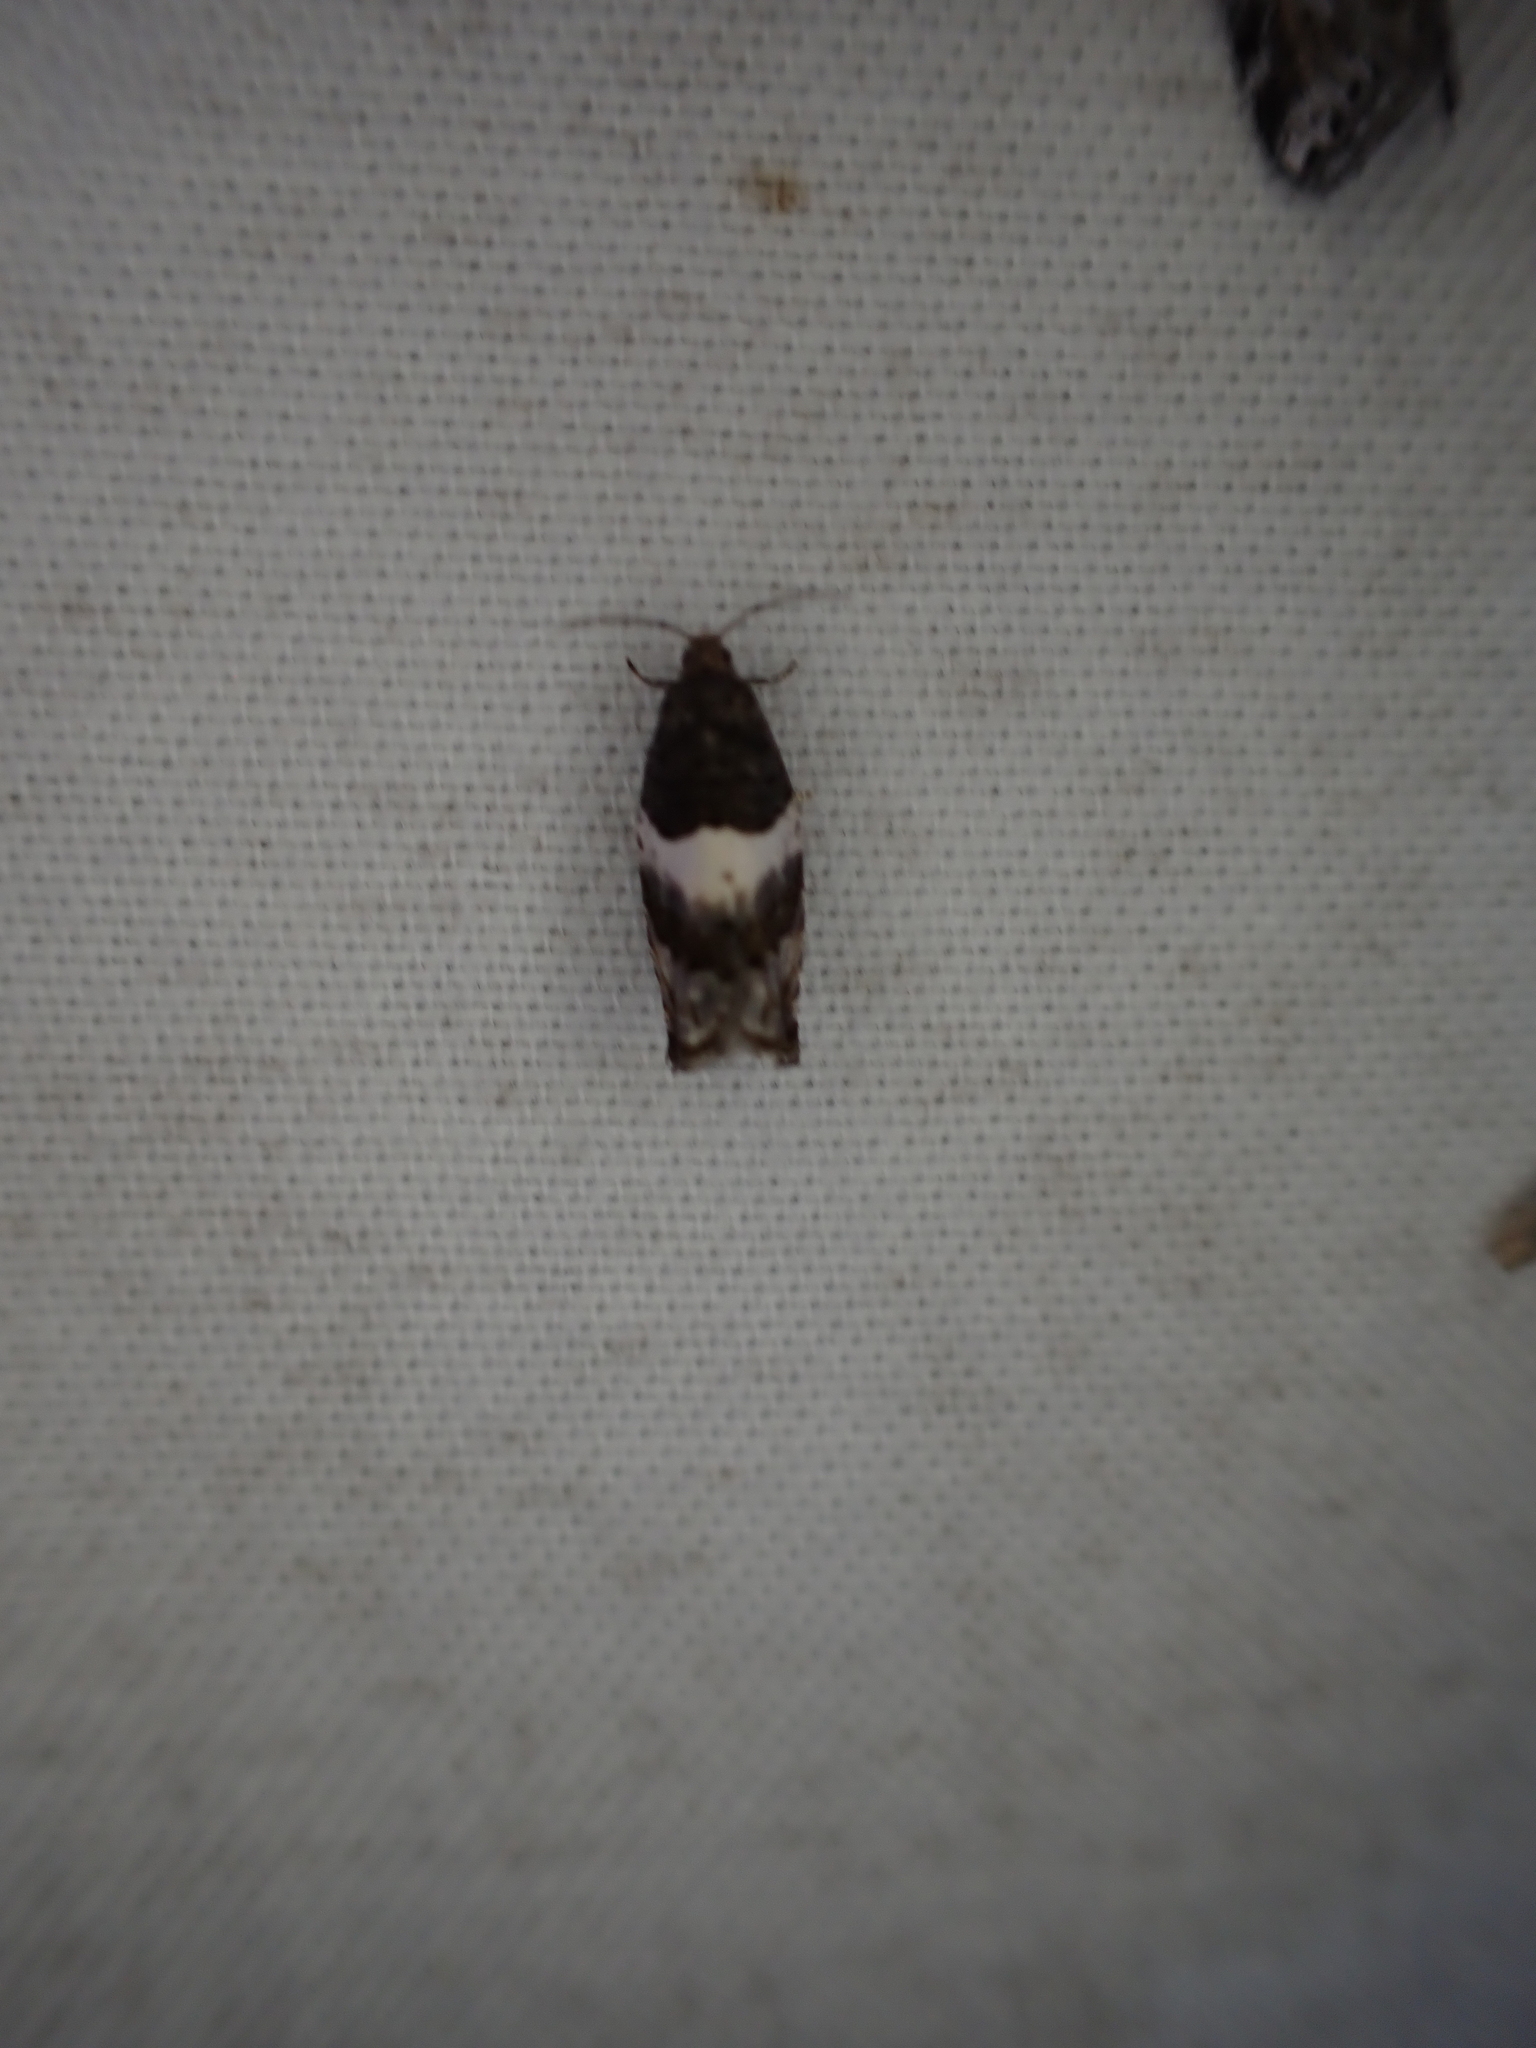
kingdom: Animalia
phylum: Arthropoda
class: Insecta
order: Lepidoptera
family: Tortricidae
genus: Gypsonoma
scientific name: Gypsonoma substitutionis
